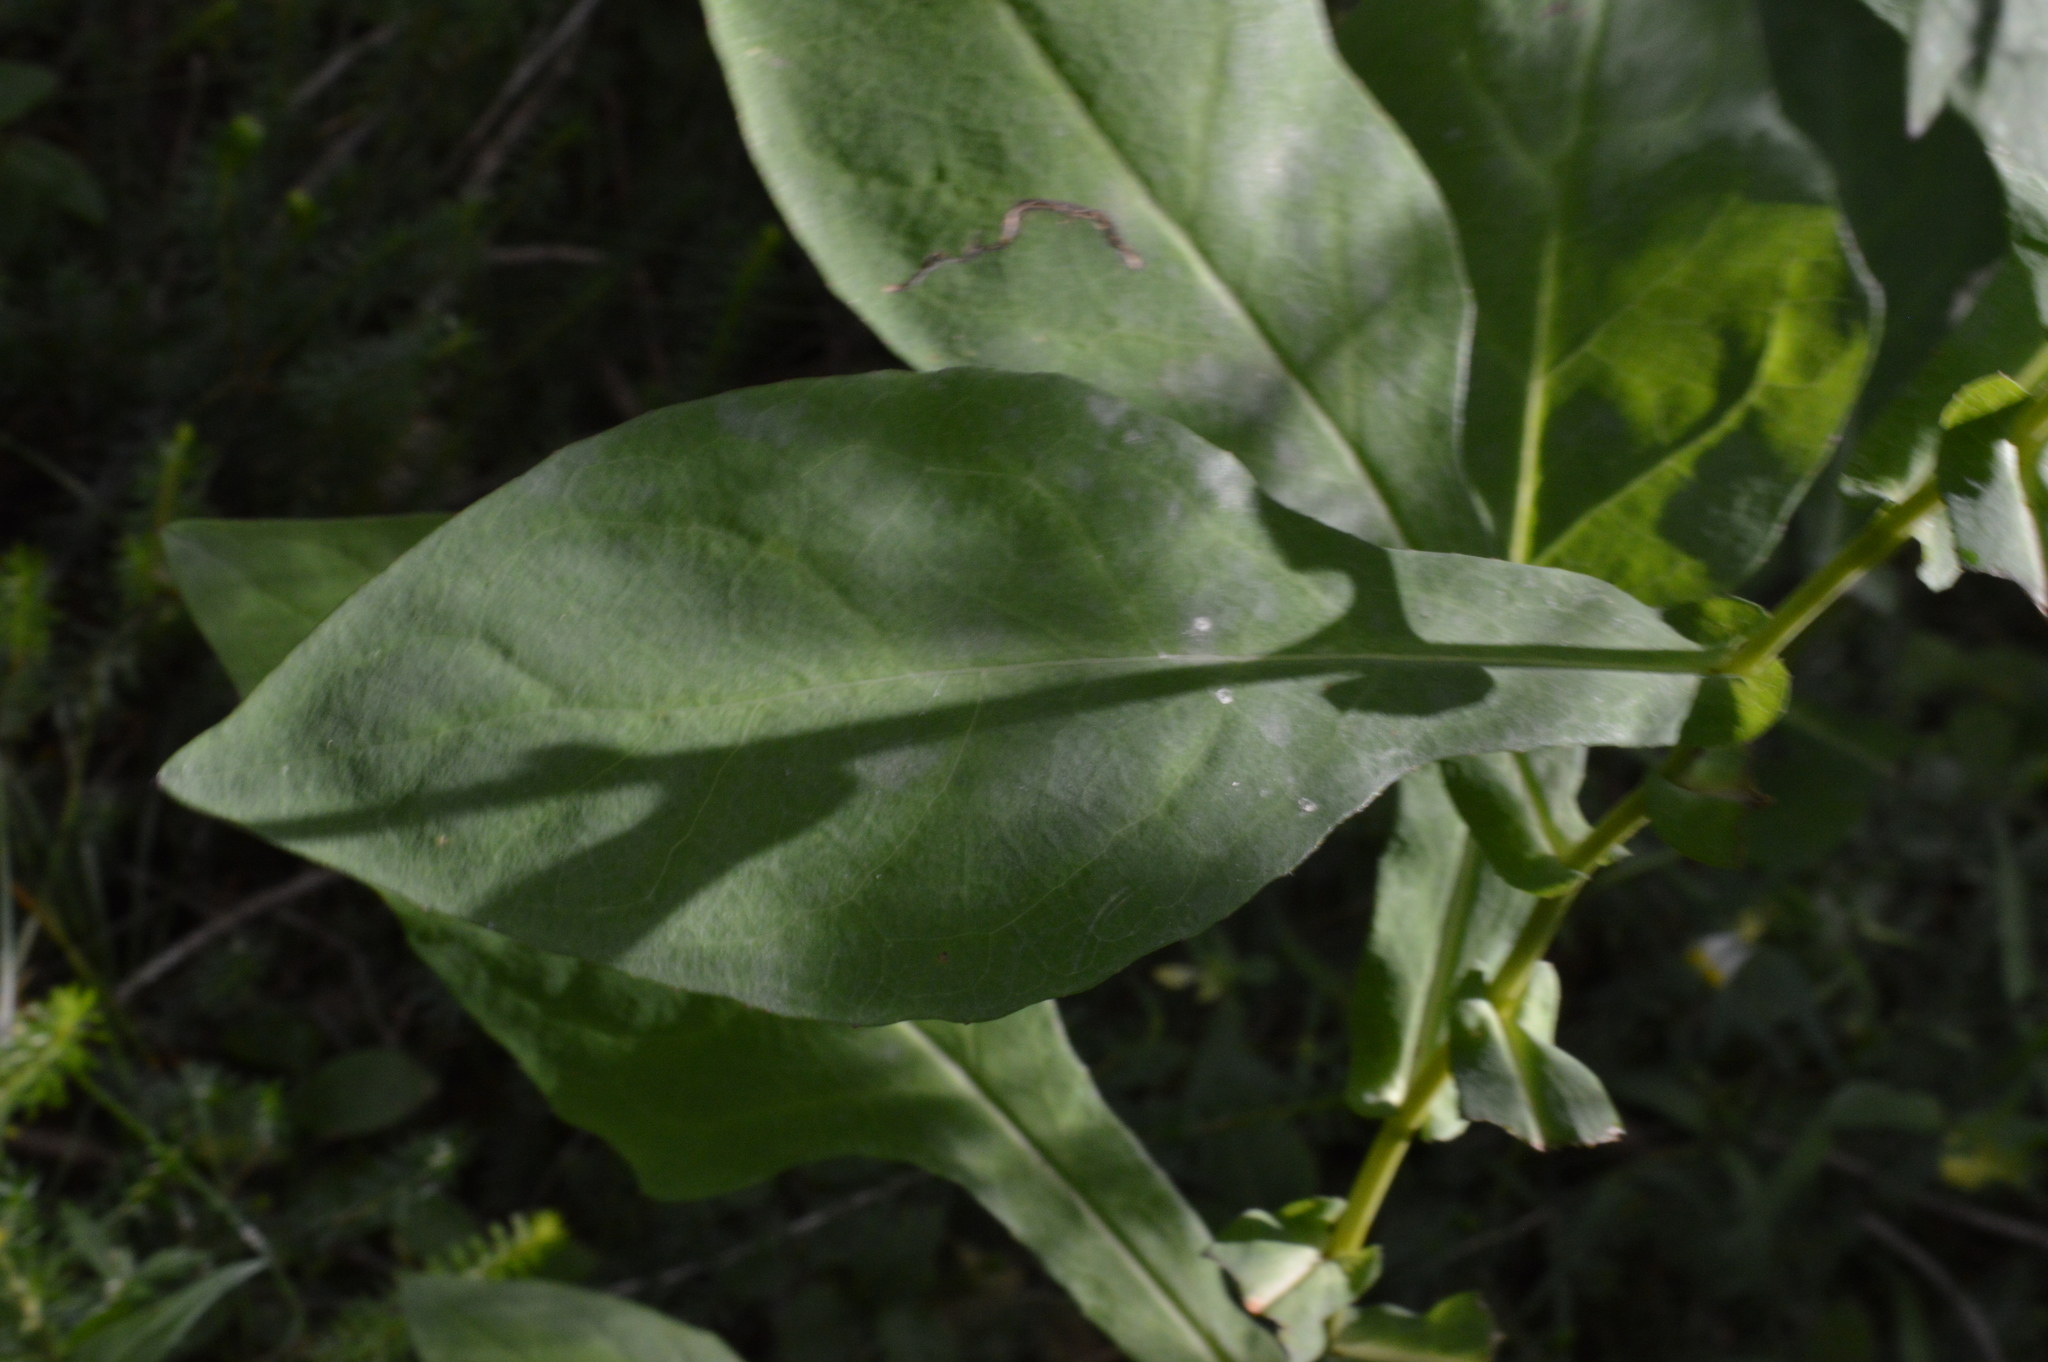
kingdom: Plantae
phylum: Tracheophyta
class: Magnoliopsida
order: Asterales
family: Asteraceae
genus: Prenanthes
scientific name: Prenanthes purpurea
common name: Purple lettuce
